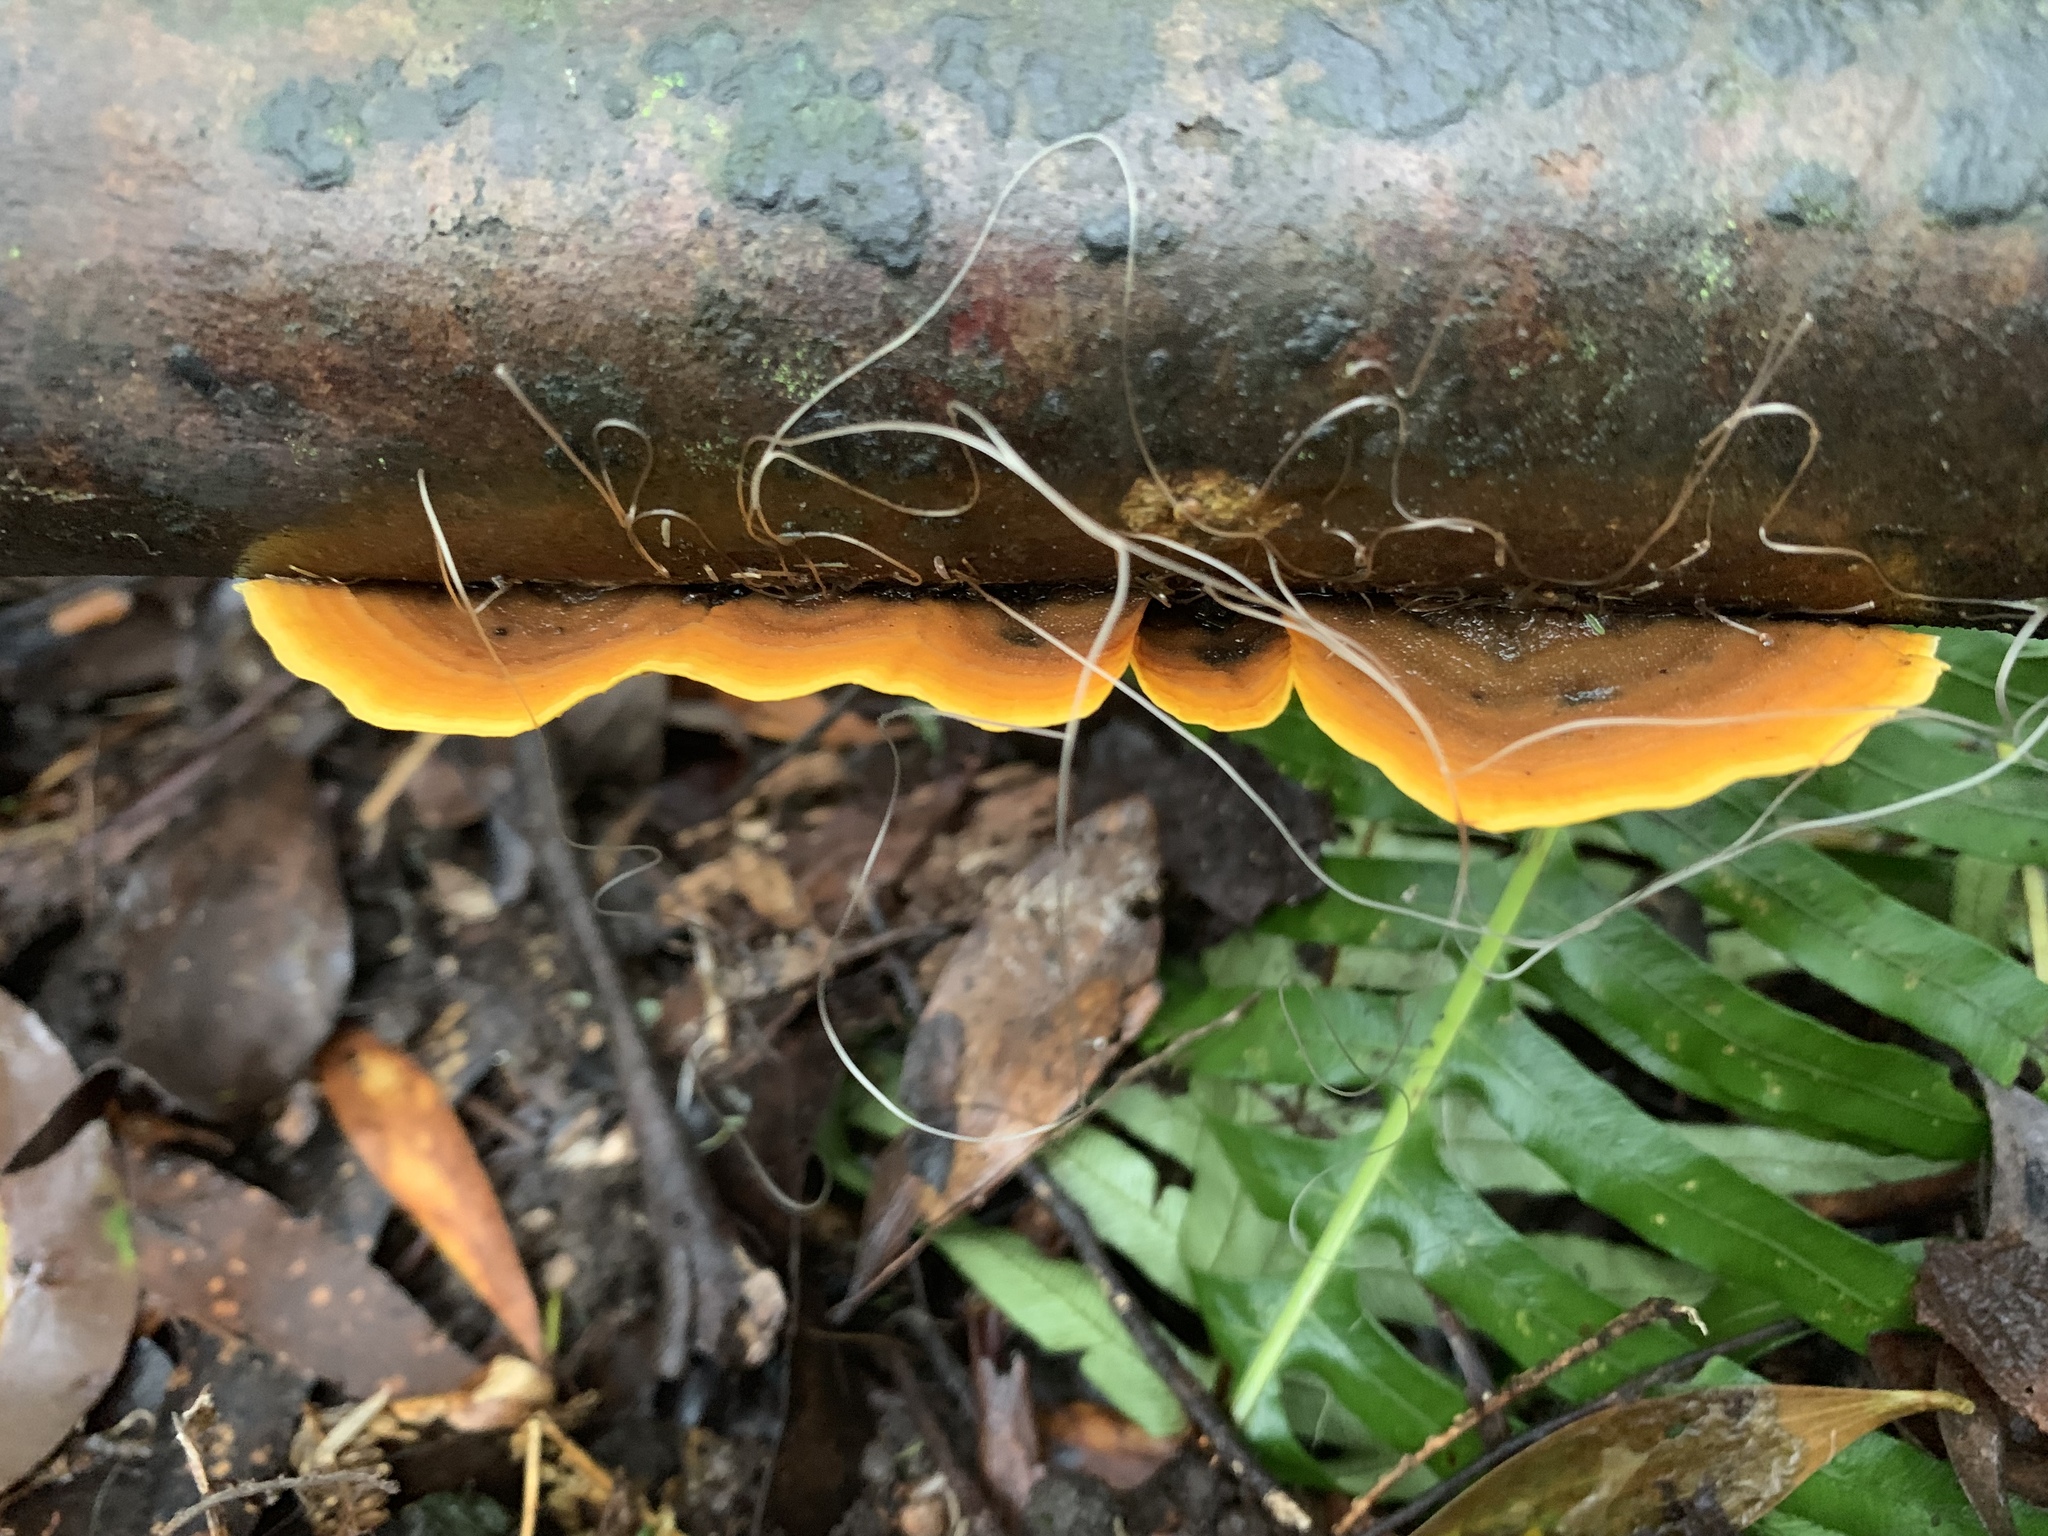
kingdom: Fungi
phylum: Basidiomycota
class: Agaricomycetes
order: Russulales
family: Stereaceae
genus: Stereum
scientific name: Stereum versicolor
